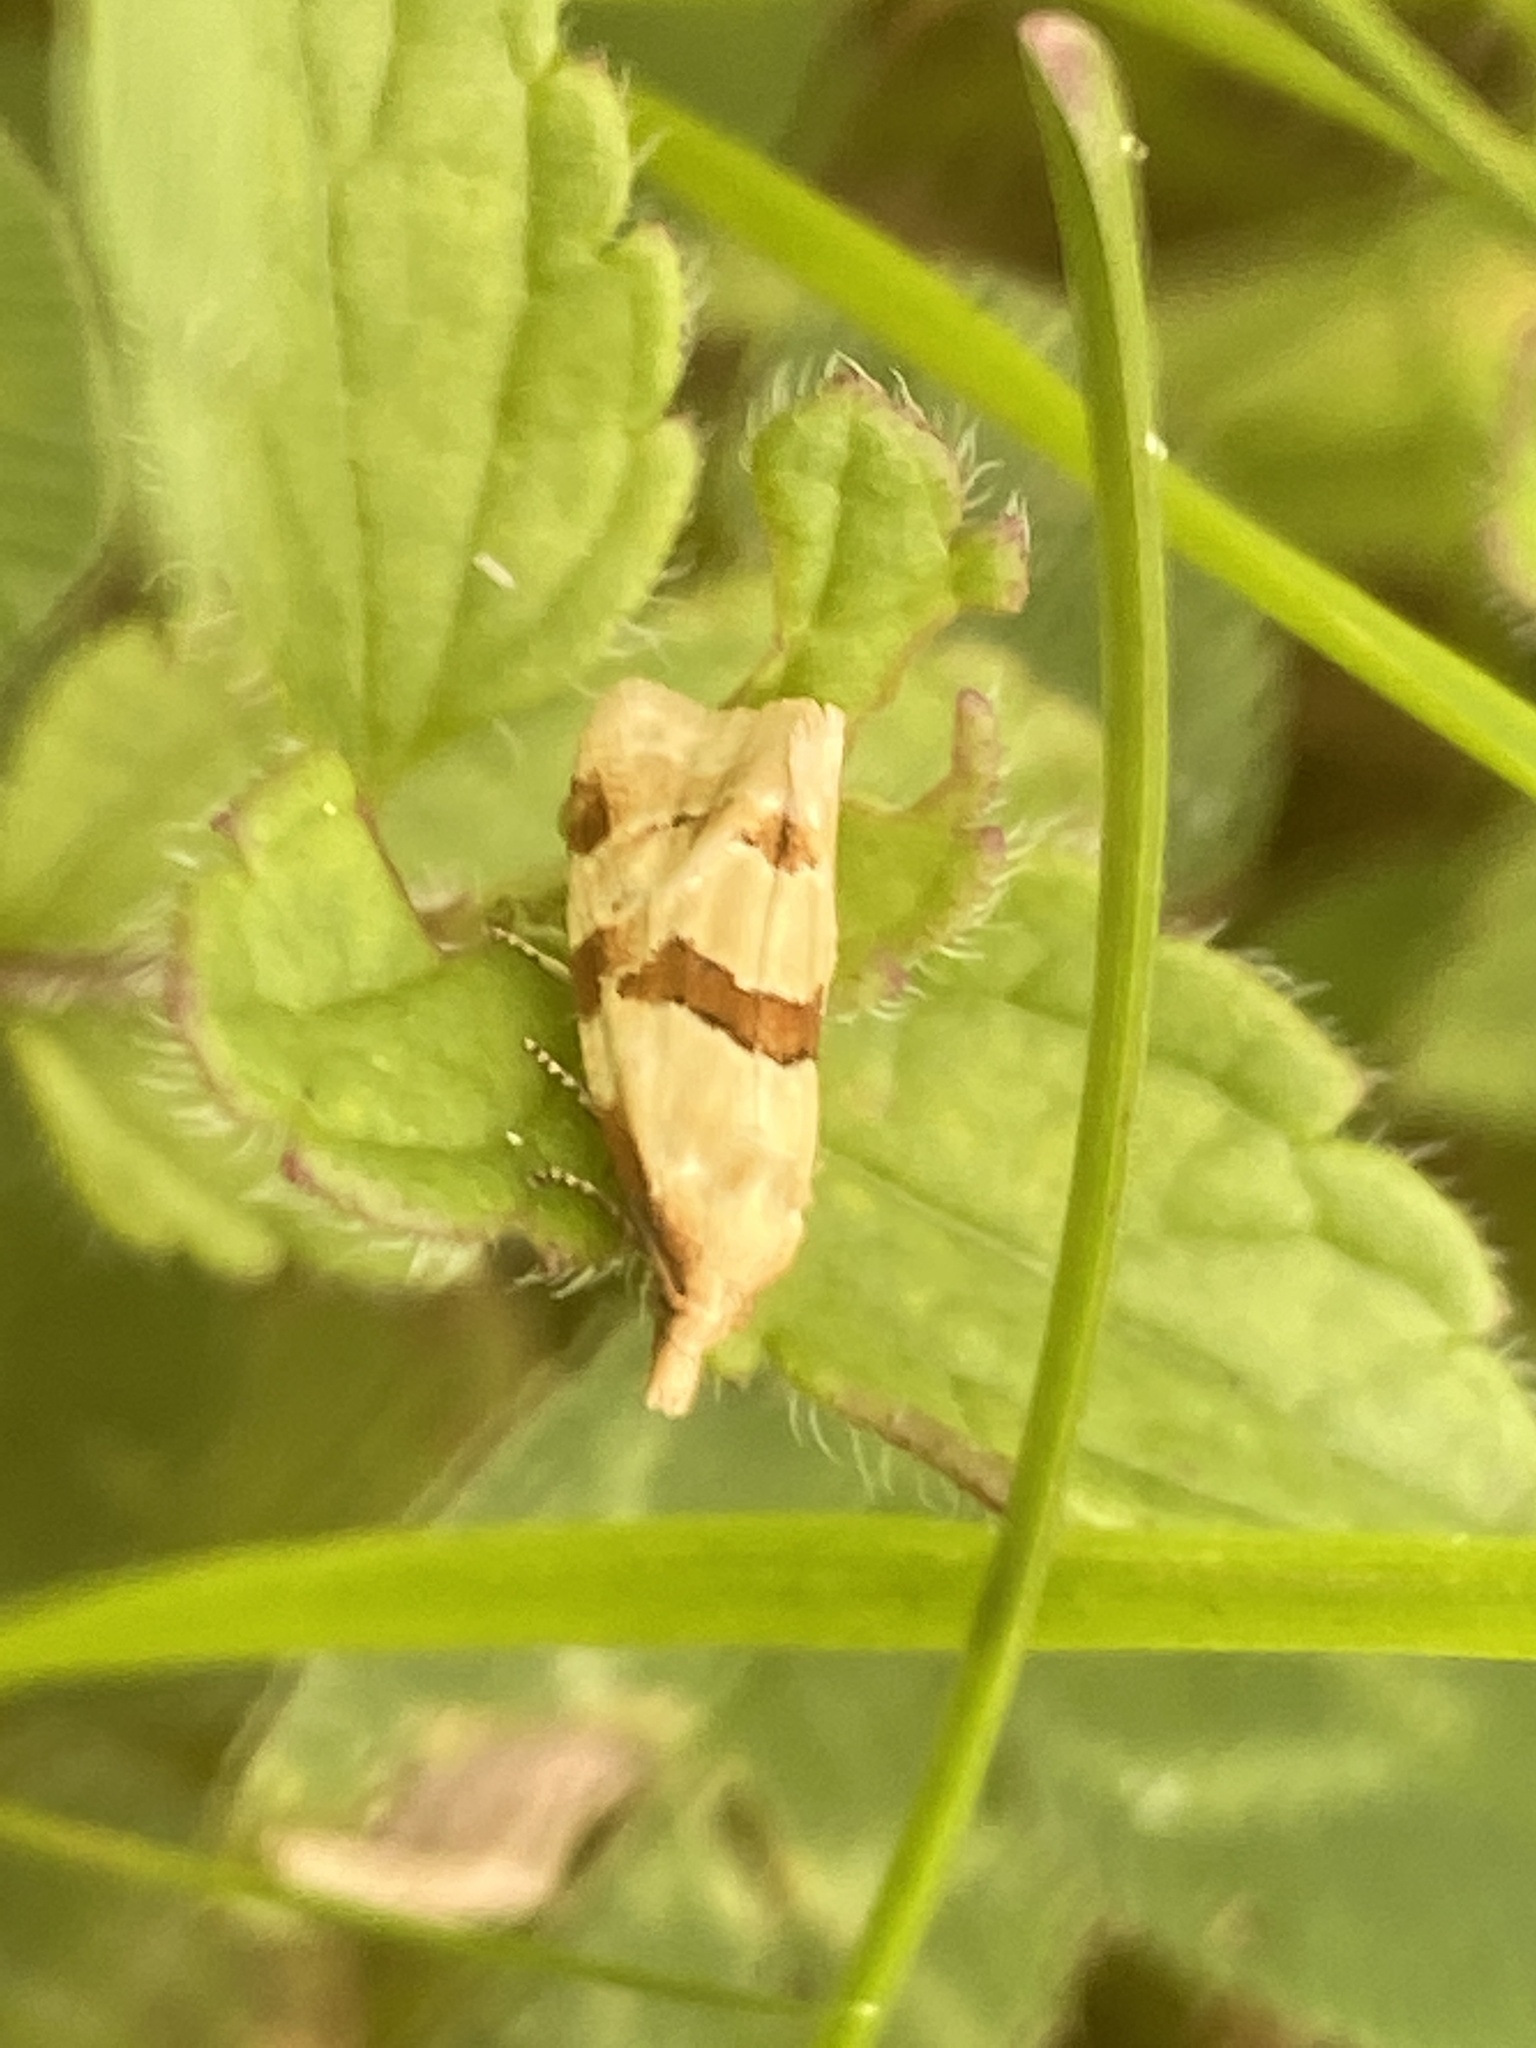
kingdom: Animalia
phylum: Arthropoda
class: Insecta
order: Lepidoptera
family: Tortricidae
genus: Aethes
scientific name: Aethes cnicana
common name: Thistle conch
